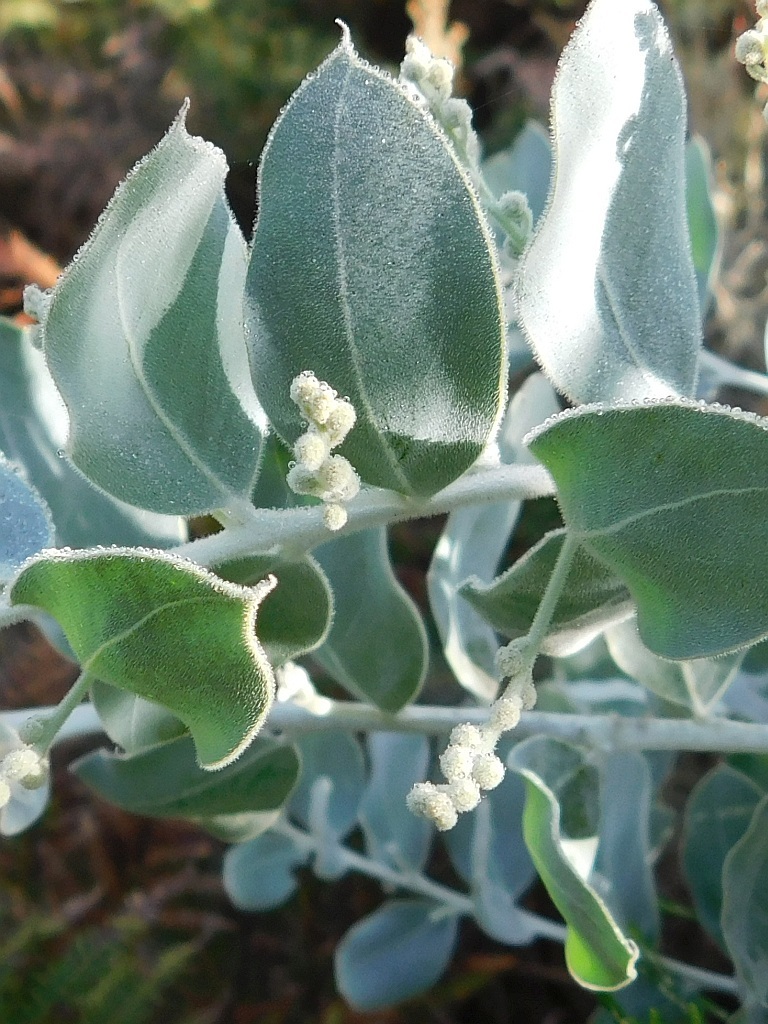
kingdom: Plantae
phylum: Tracheophyta
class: Magnoliopsida
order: Fabales
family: Fabaceae
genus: Acacia
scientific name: Acacia podalyriifolia
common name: Pearl wattle
